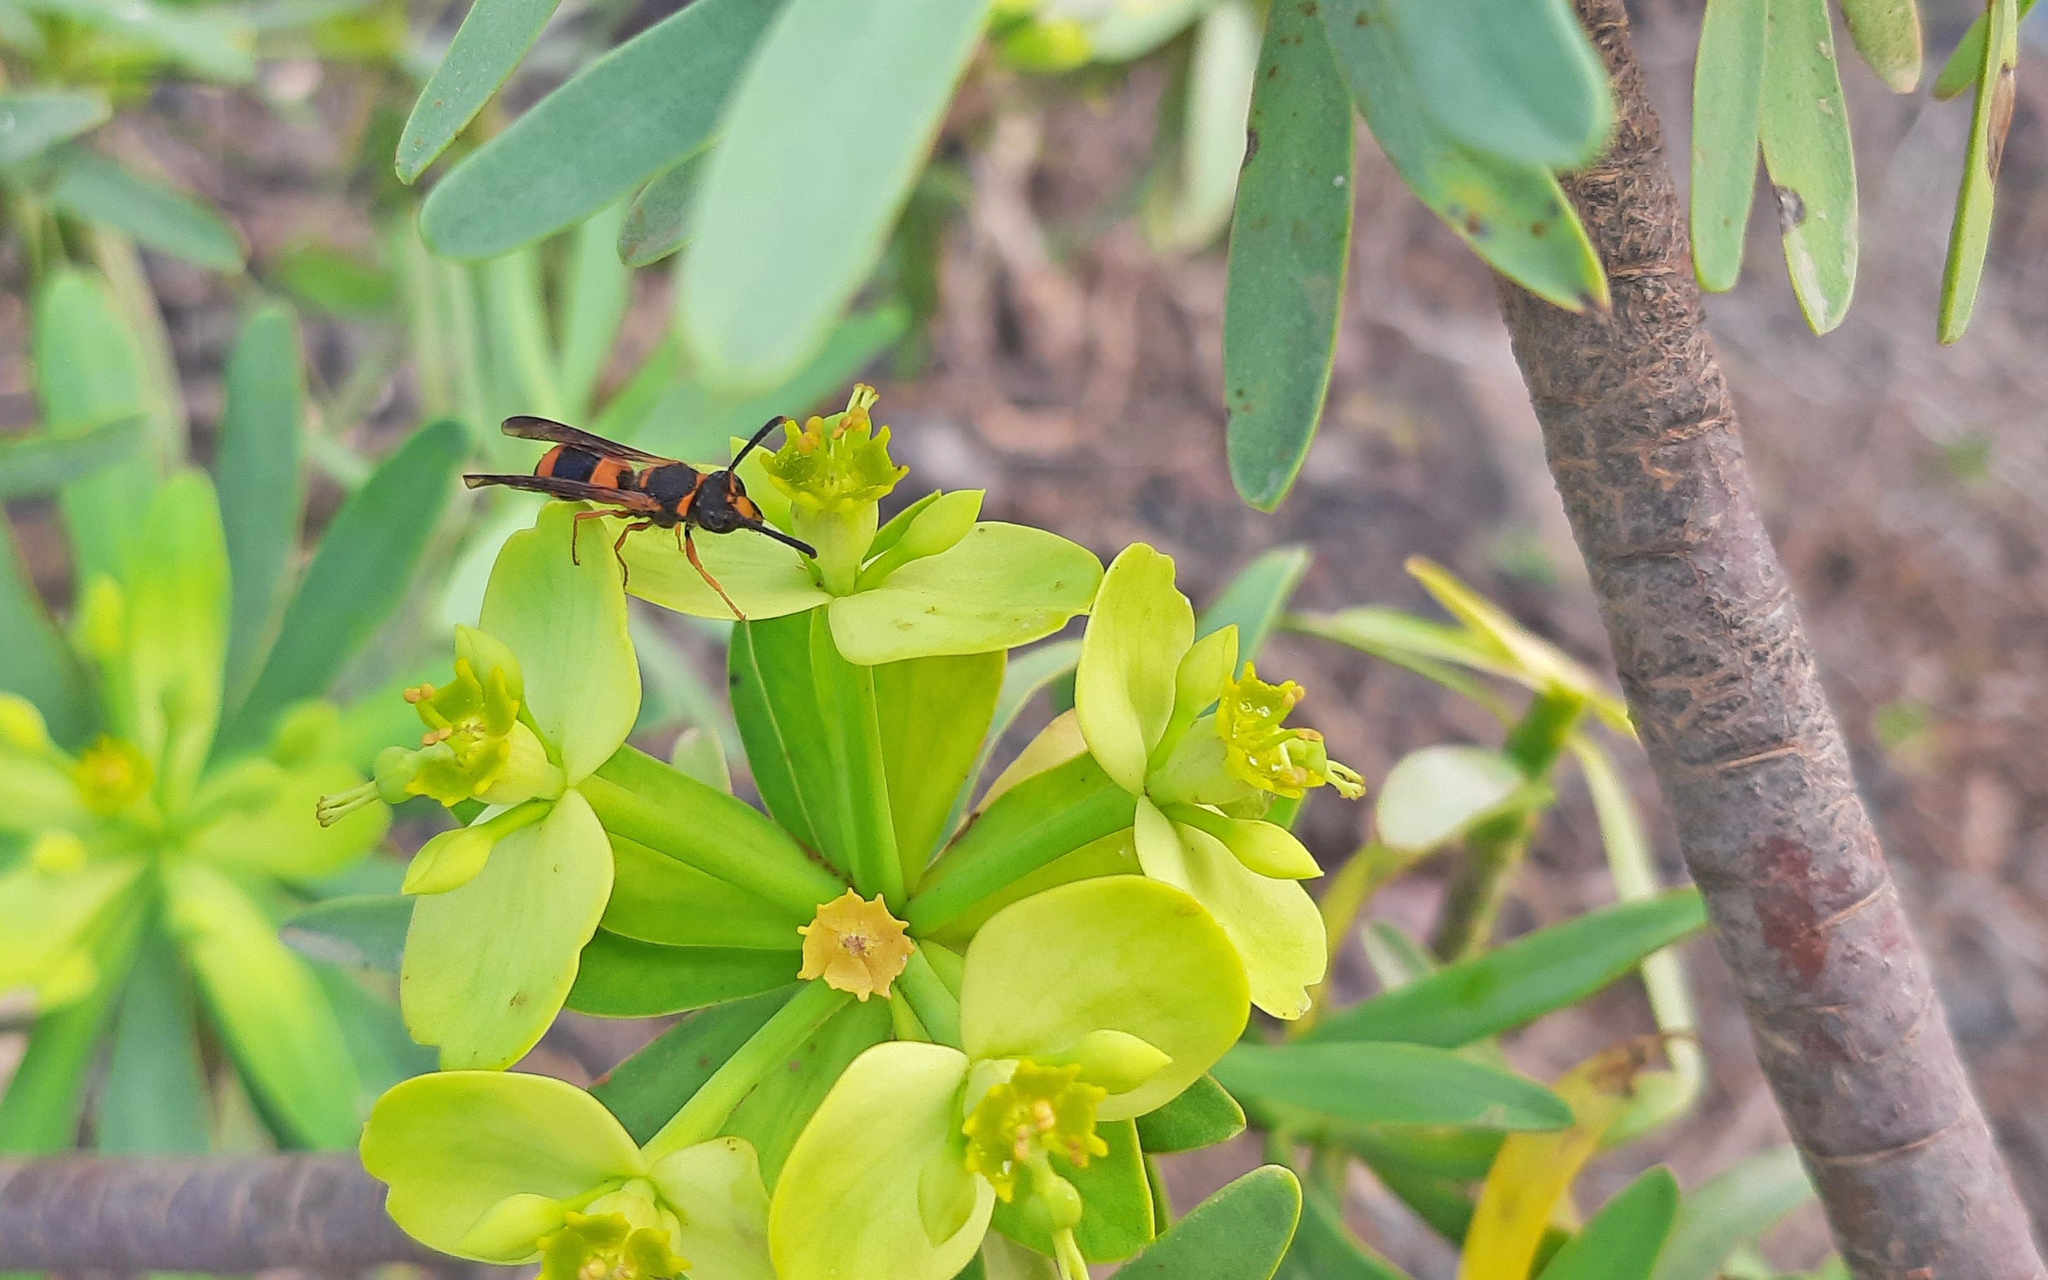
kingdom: Animalia
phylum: Arthropoda
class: Insecta
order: Hymenoptera
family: Vespidae
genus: Ancistrocerus
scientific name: Ancistrocerus kerneri
